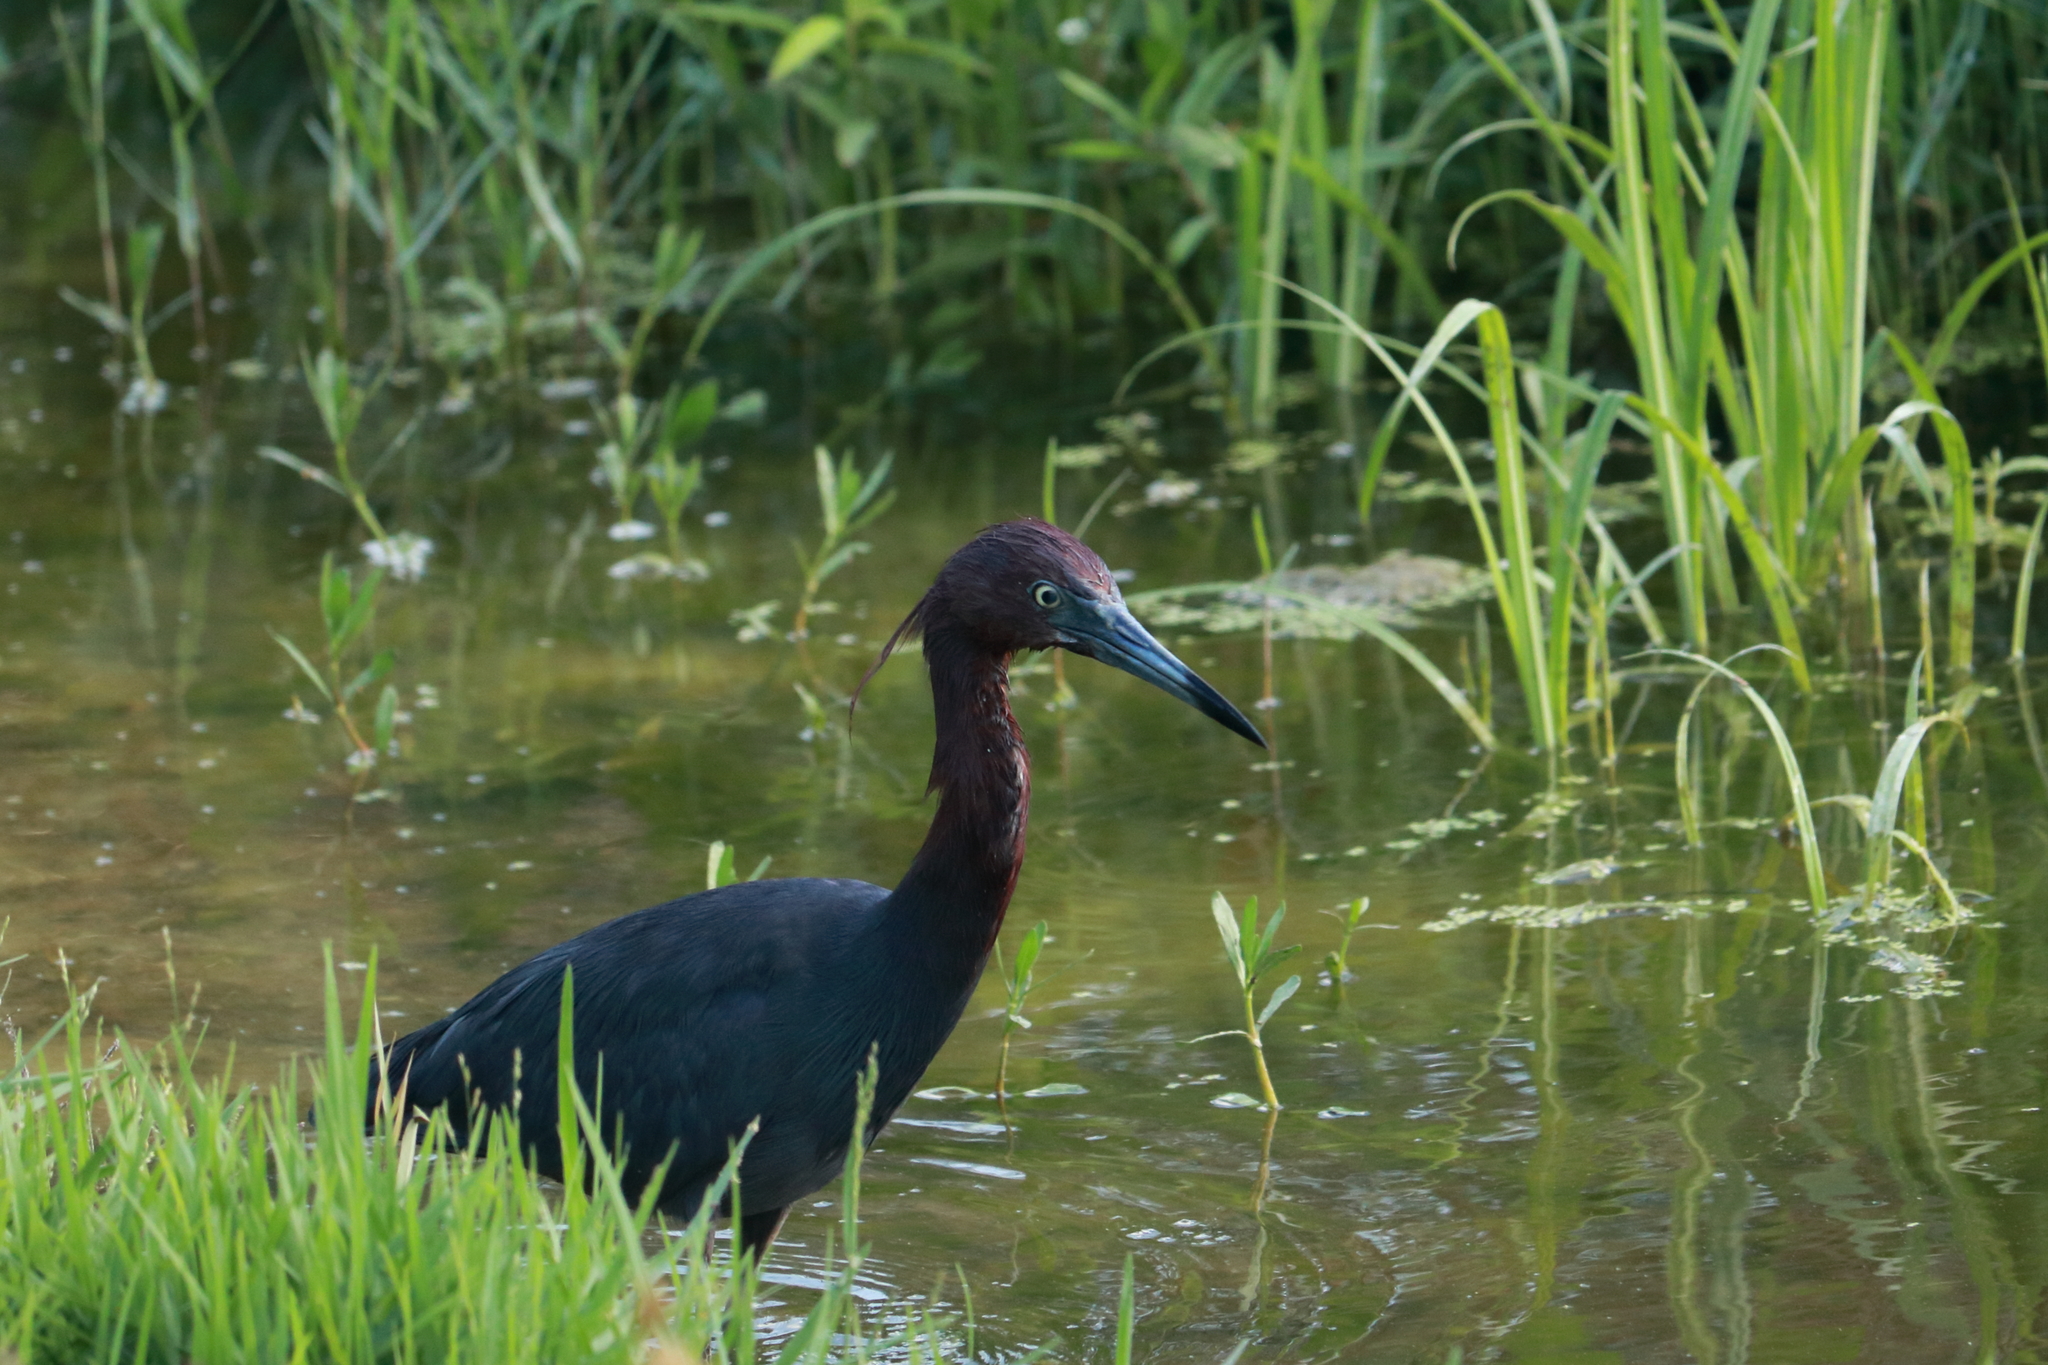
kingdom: Animalia
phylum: Chordata
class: Aves
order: Pelecaniformes
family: Ardeidae
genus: Egretta
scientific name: Egretta caerulea
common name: Little blue heron
